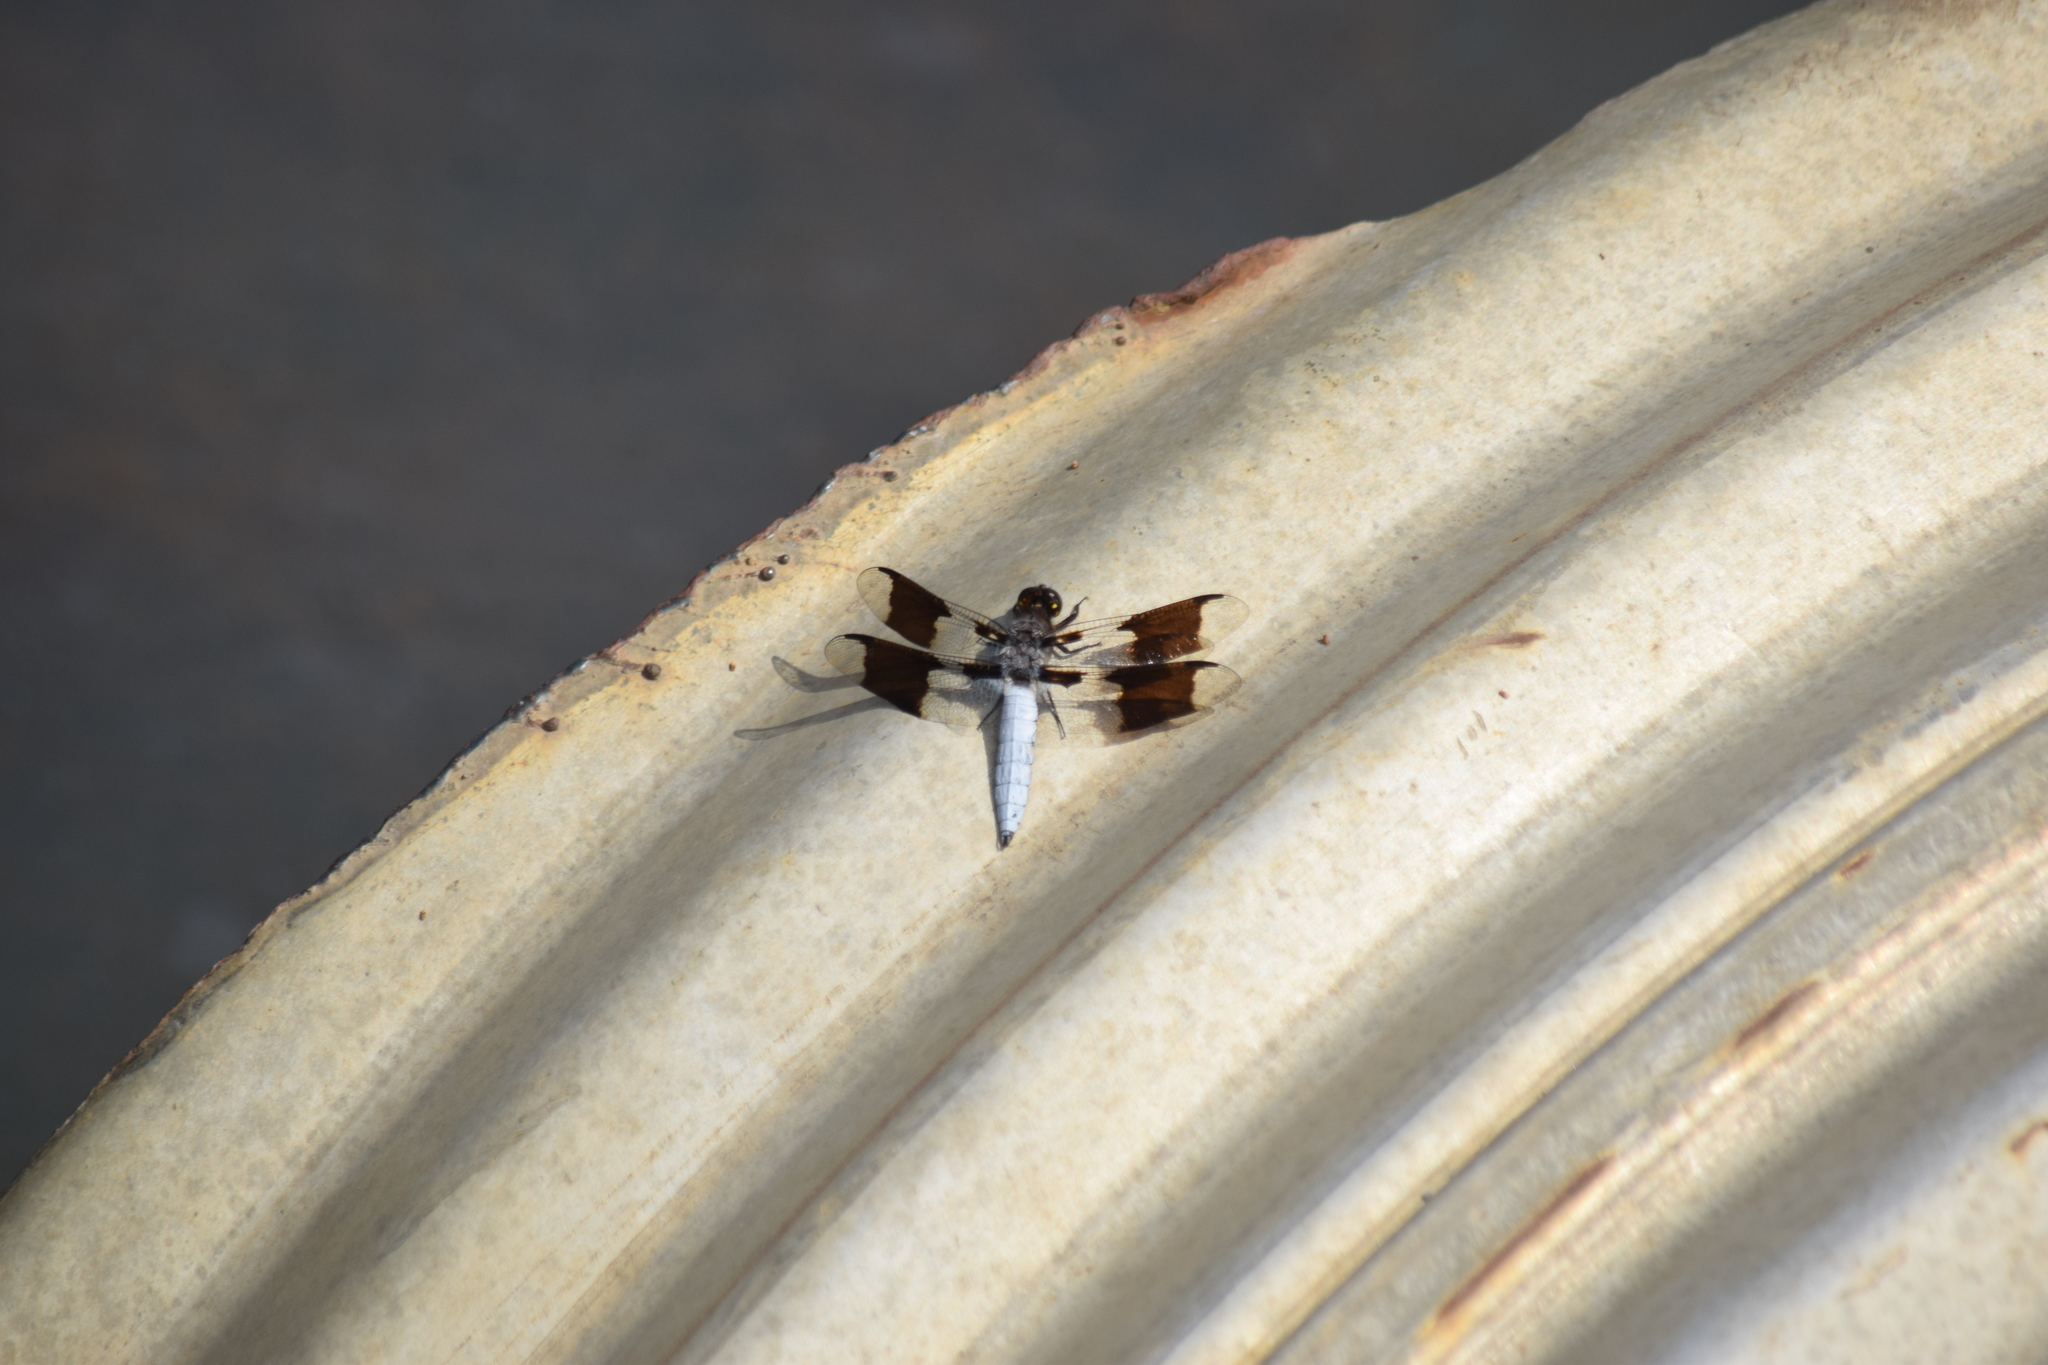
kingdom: Animalia
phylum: Arthropoda
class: Insecta
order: Odonata
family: Libellulidae
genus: Plathemis
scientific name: Plathemis lydia
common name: Common whitetail
